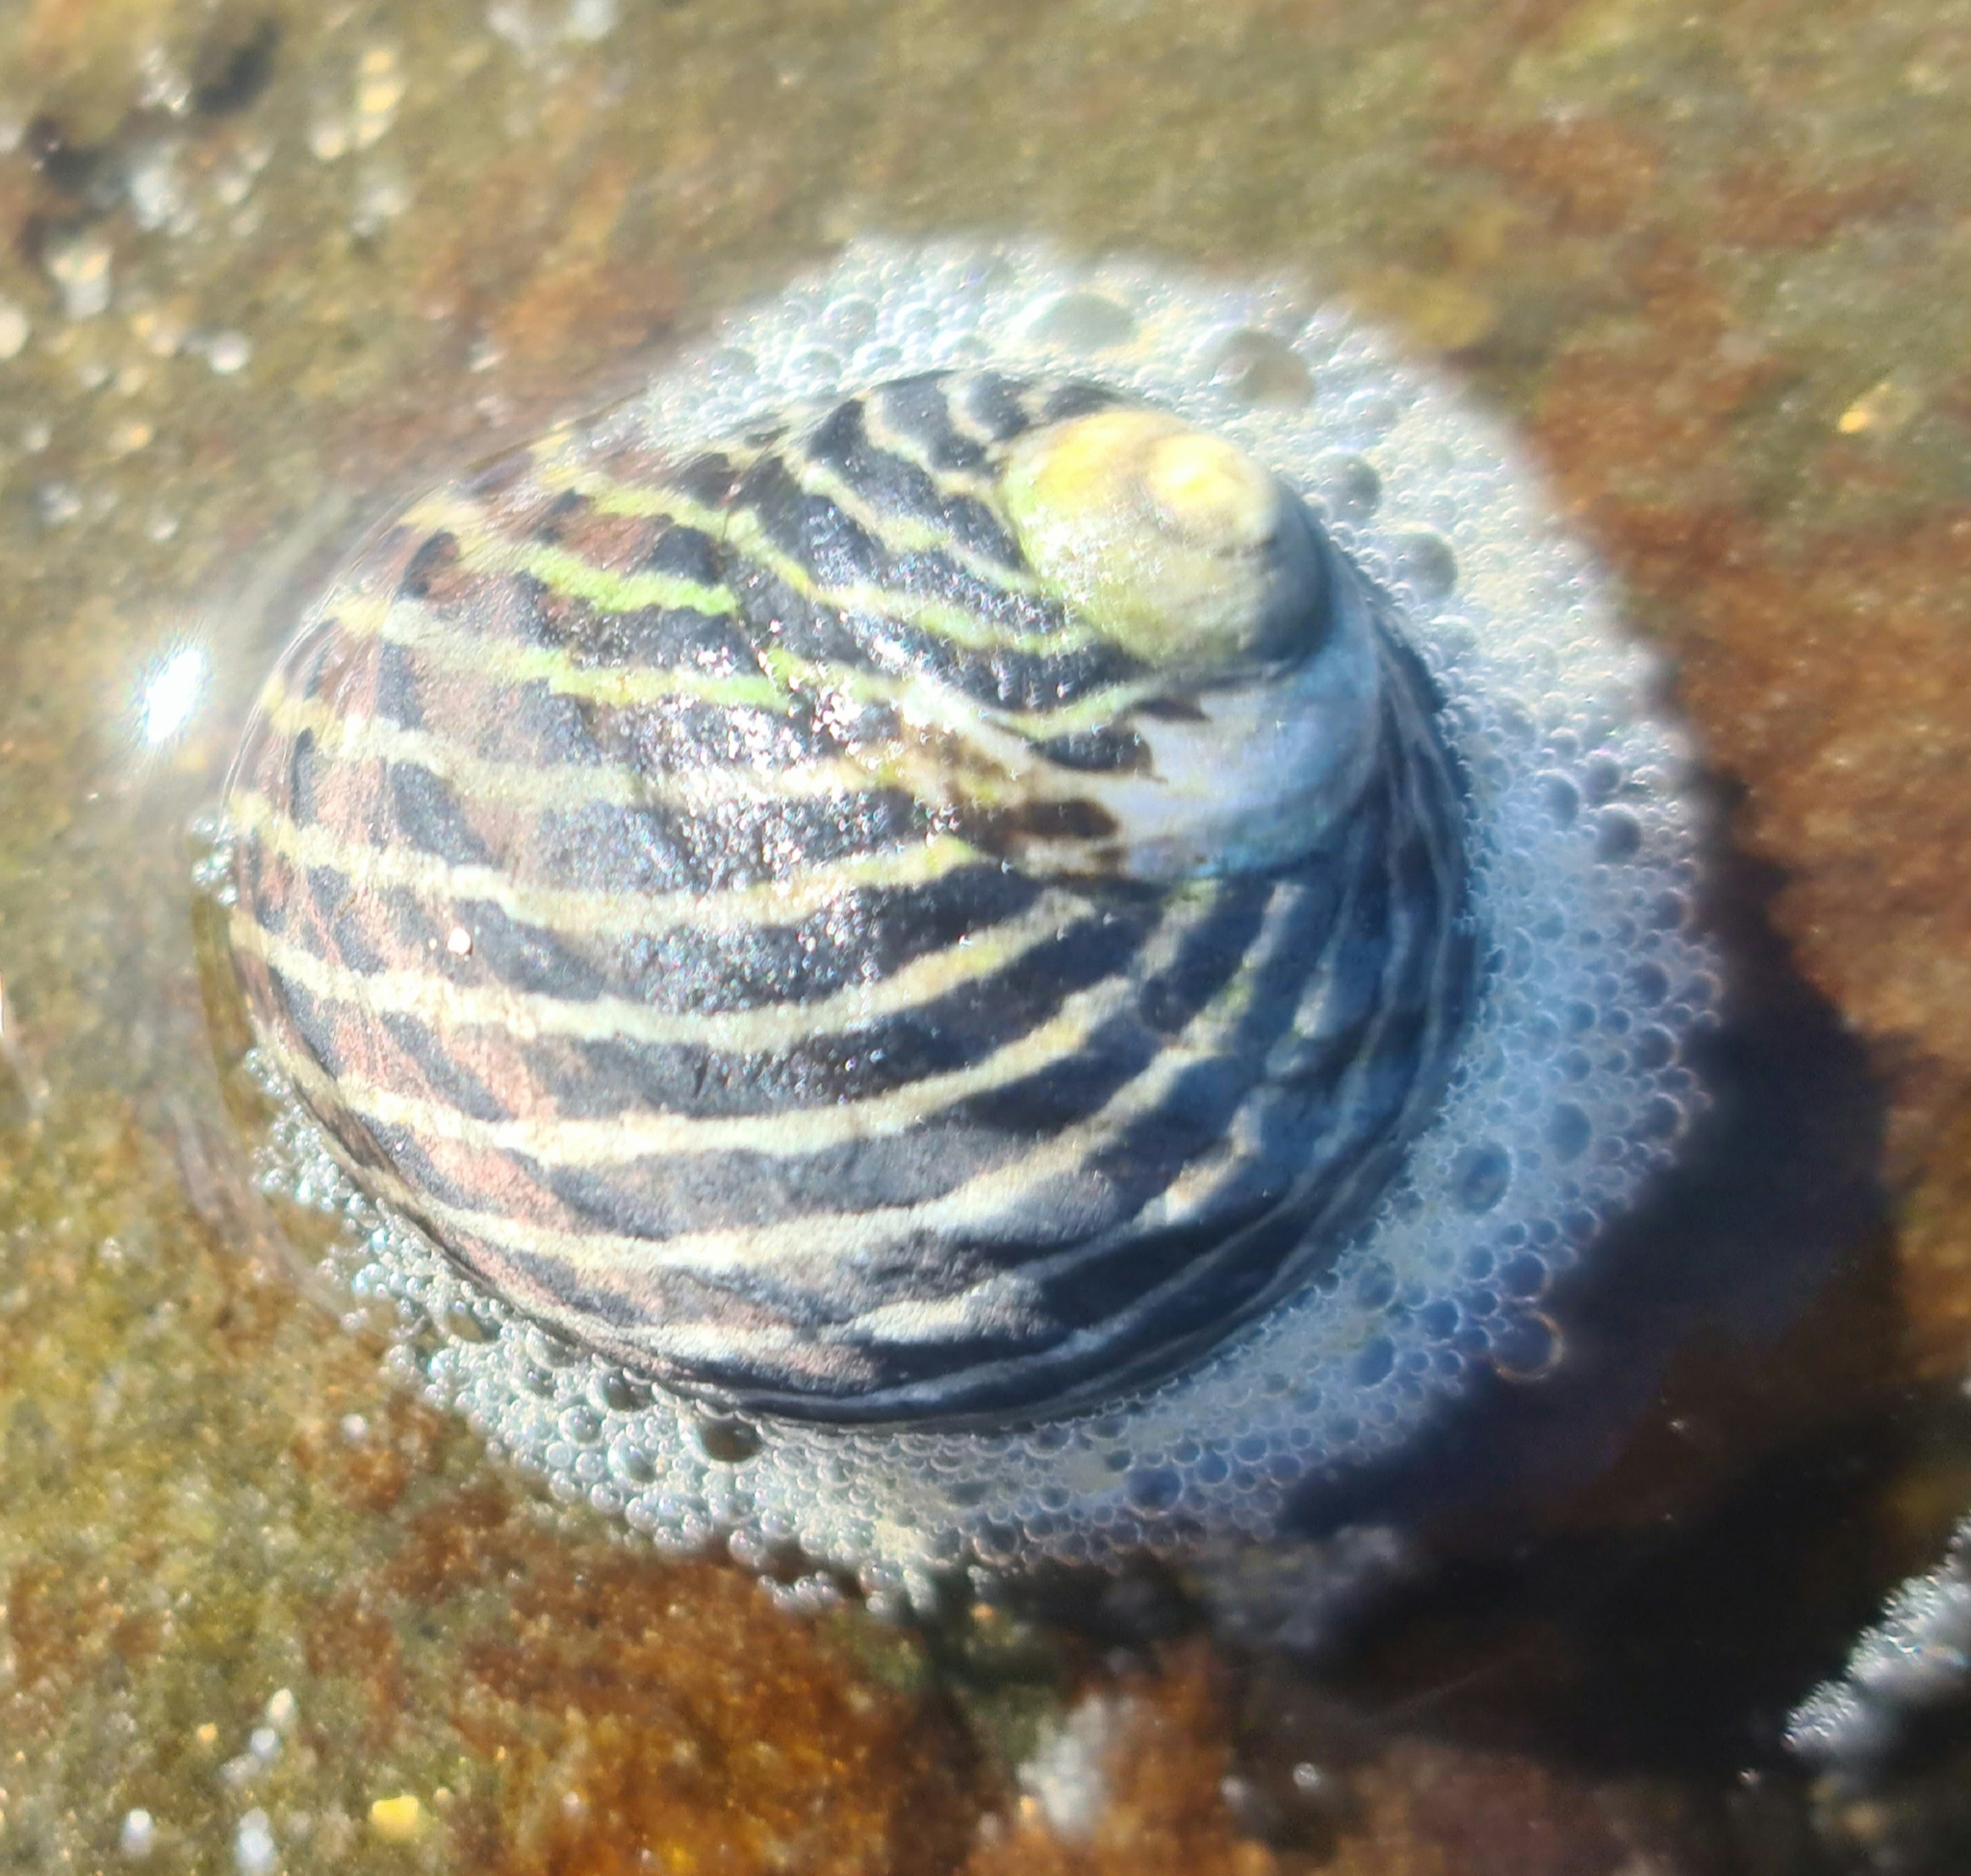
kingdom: Animalia
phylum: Mollusca
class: Gastropoda
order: Trochida
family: Trochidae
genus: Austrocochlea
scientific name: Austrocochlea porcata
